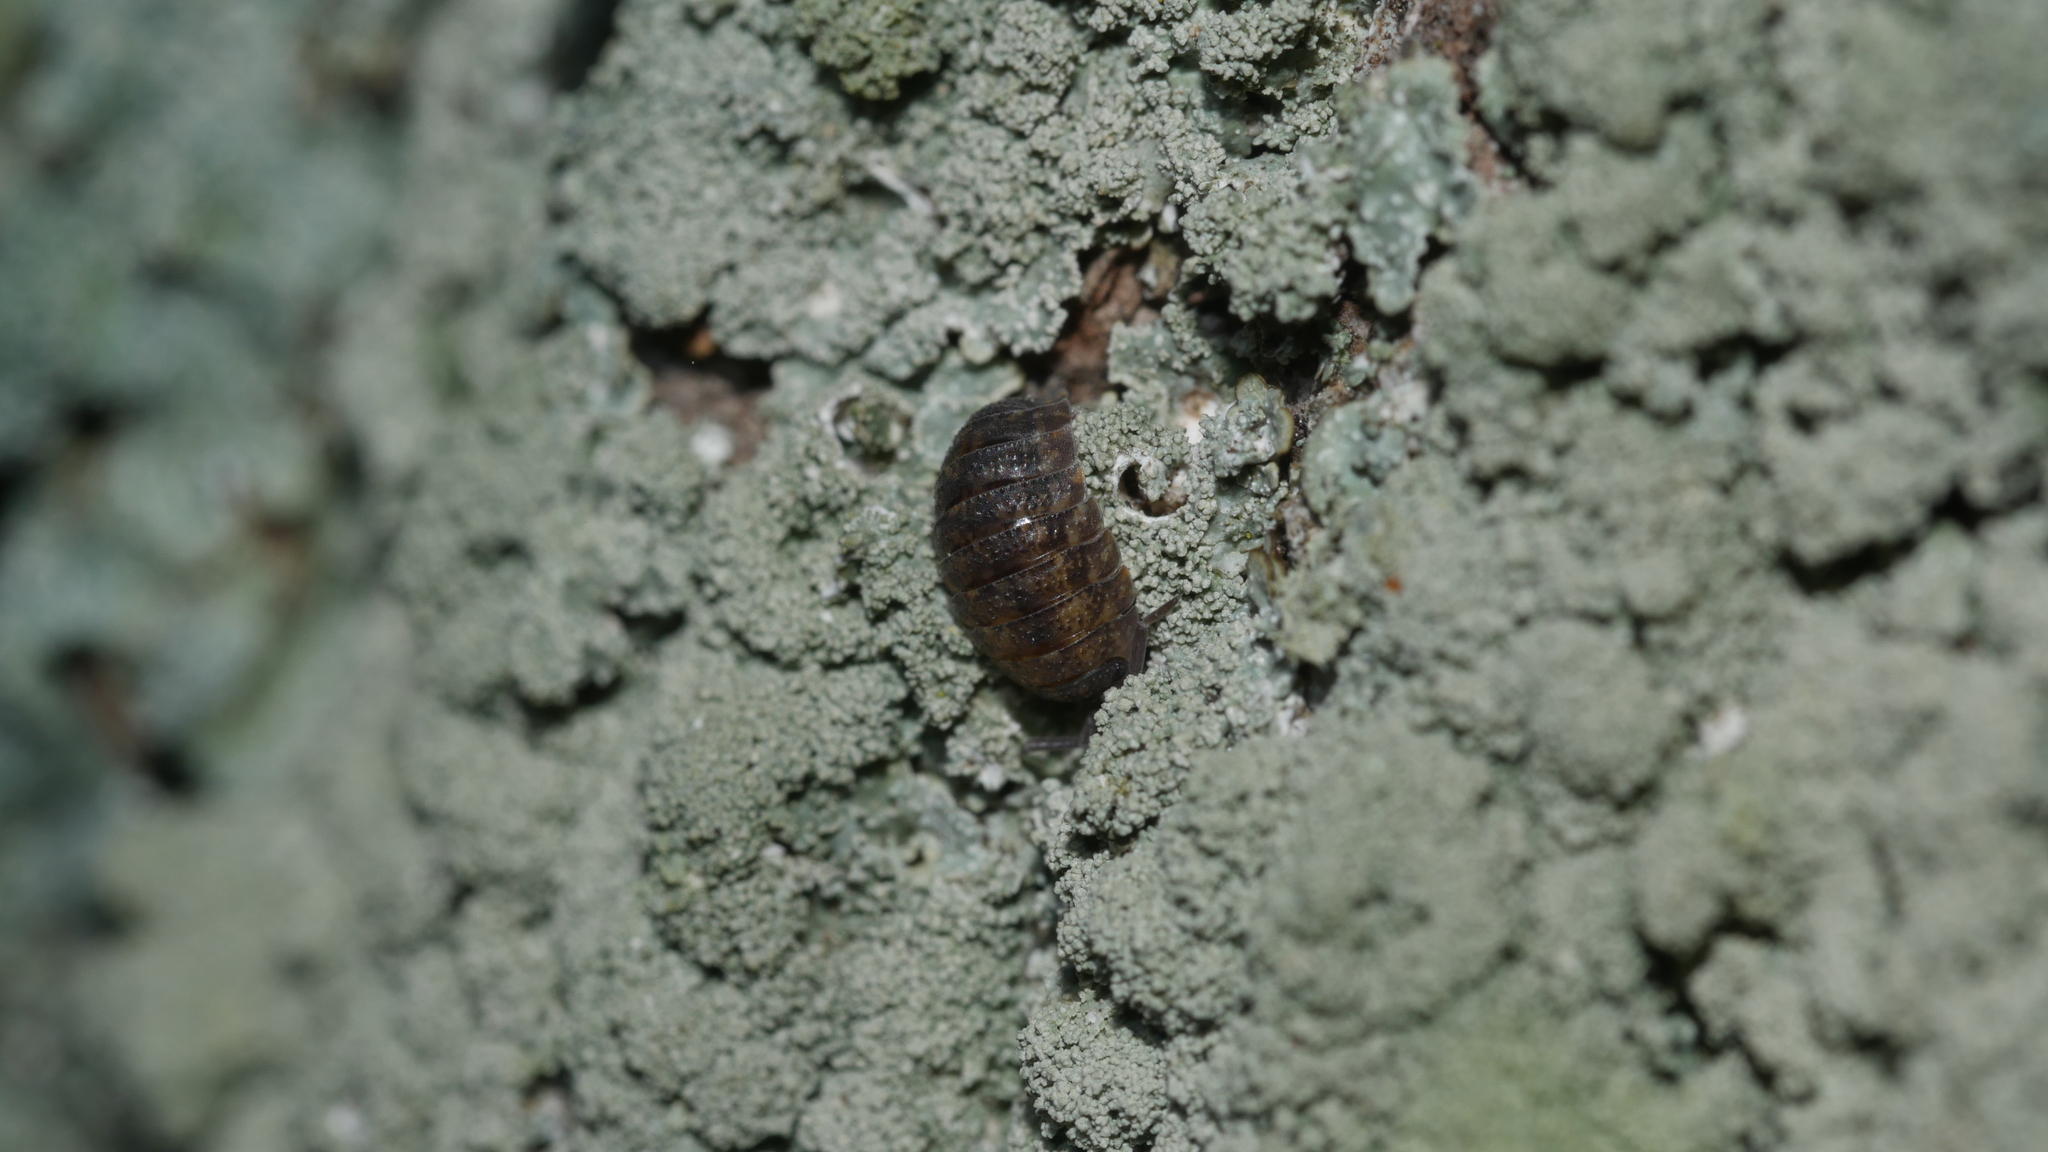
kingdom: Animalia
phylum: Arthropoda
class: Malacostraca
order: Isopoda
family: Porcellionidae
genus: Porcellio
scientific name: Porcellio scaber
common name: Common rough woodlouse
